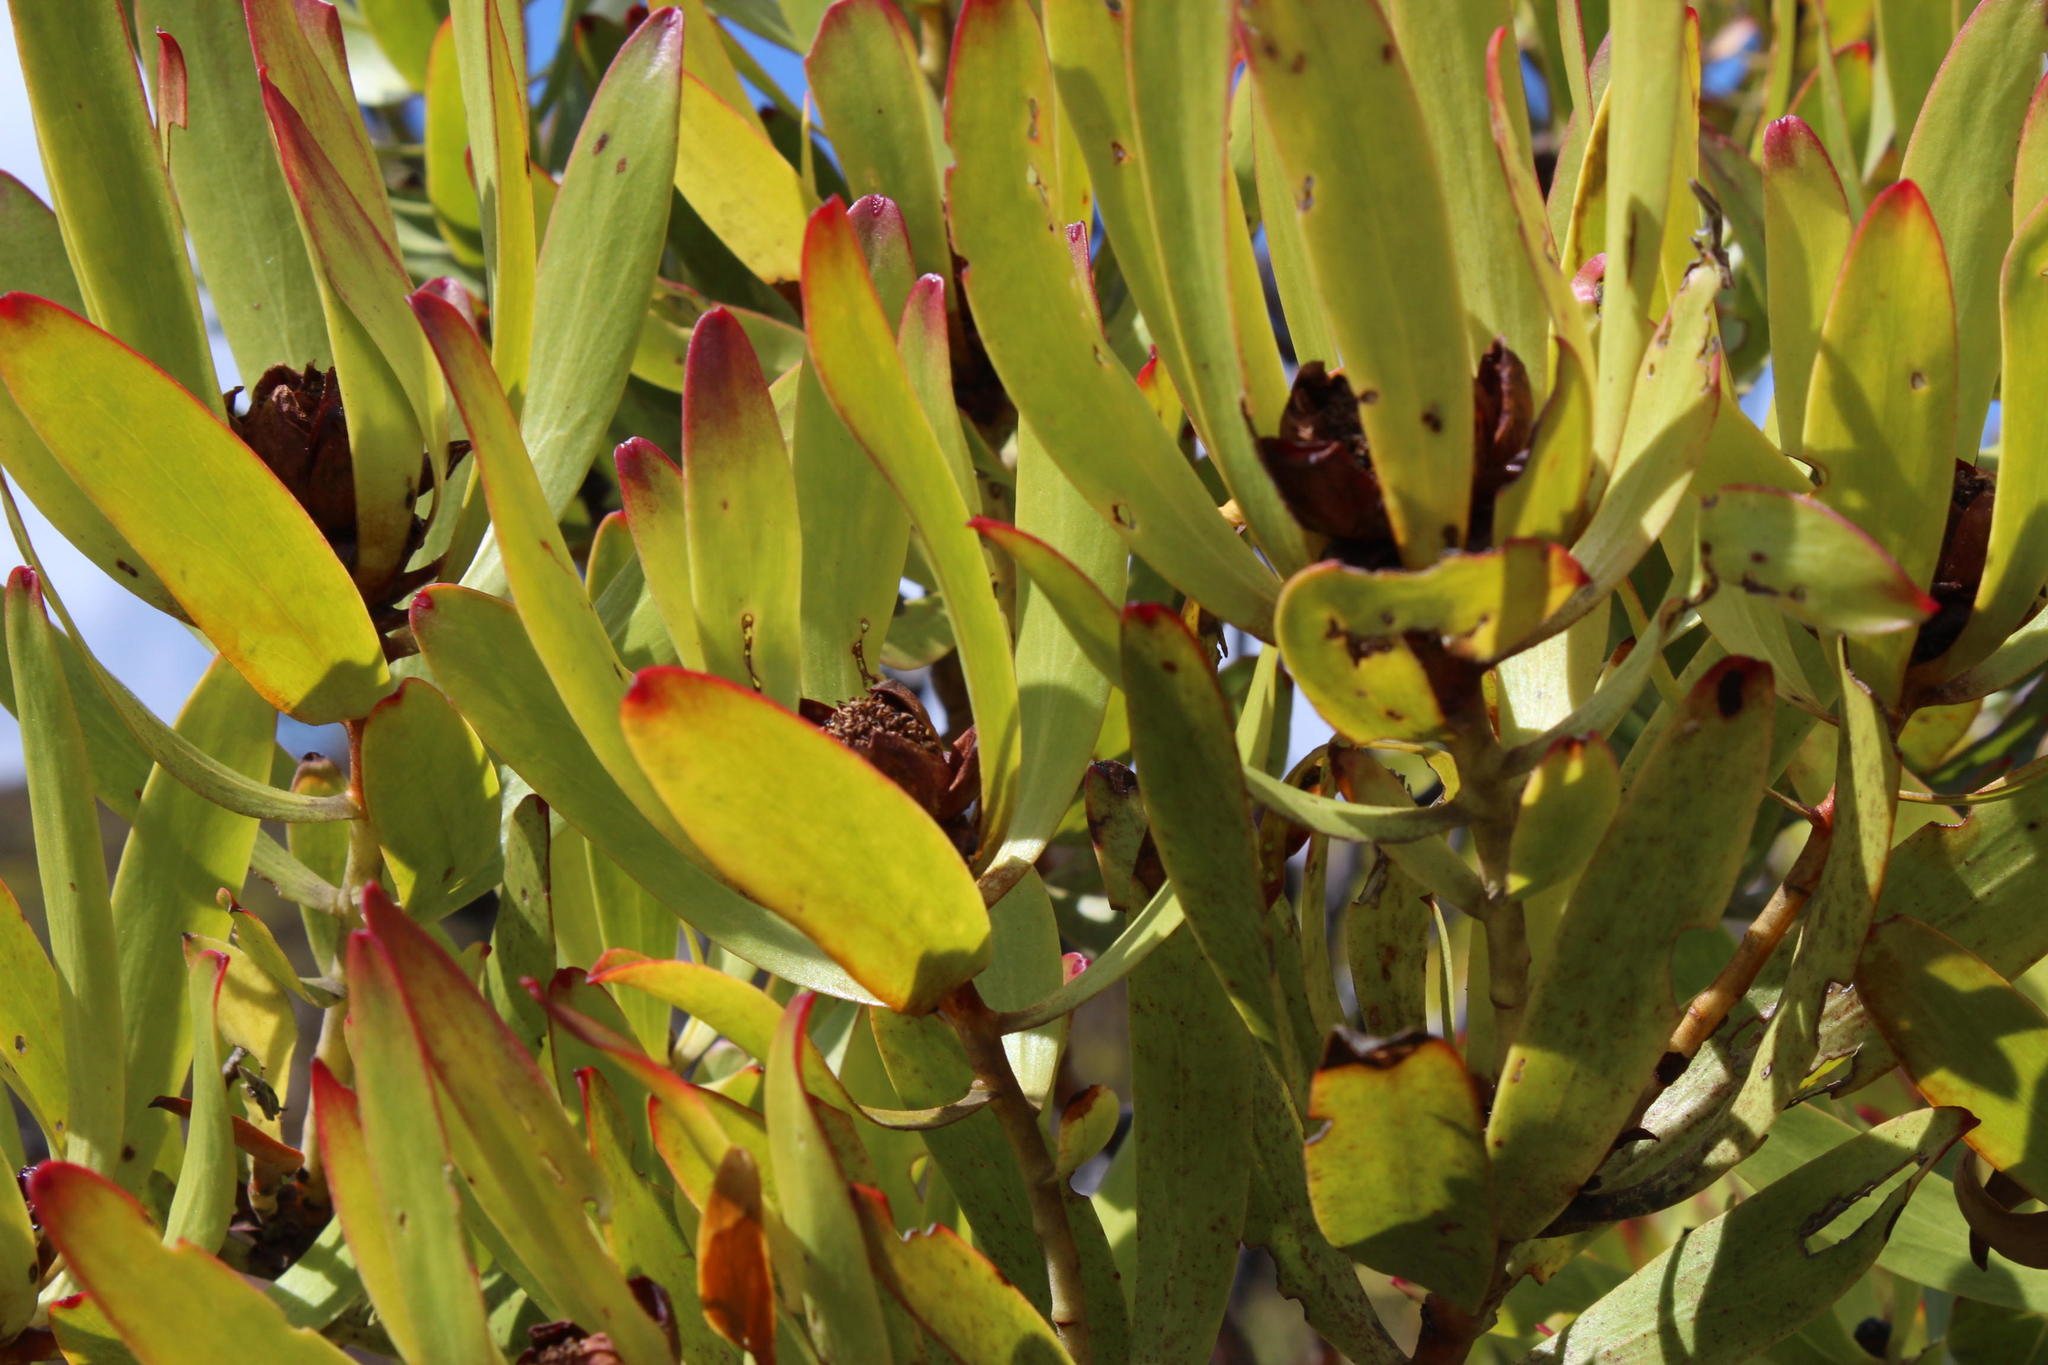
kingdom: Plantae
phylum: Tracheophyta
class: Magnoliopsida
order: Proteales
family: Proteaceae
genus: Leucadendron
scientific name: Leucadendron microcephalum
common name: Oilbract conebush
